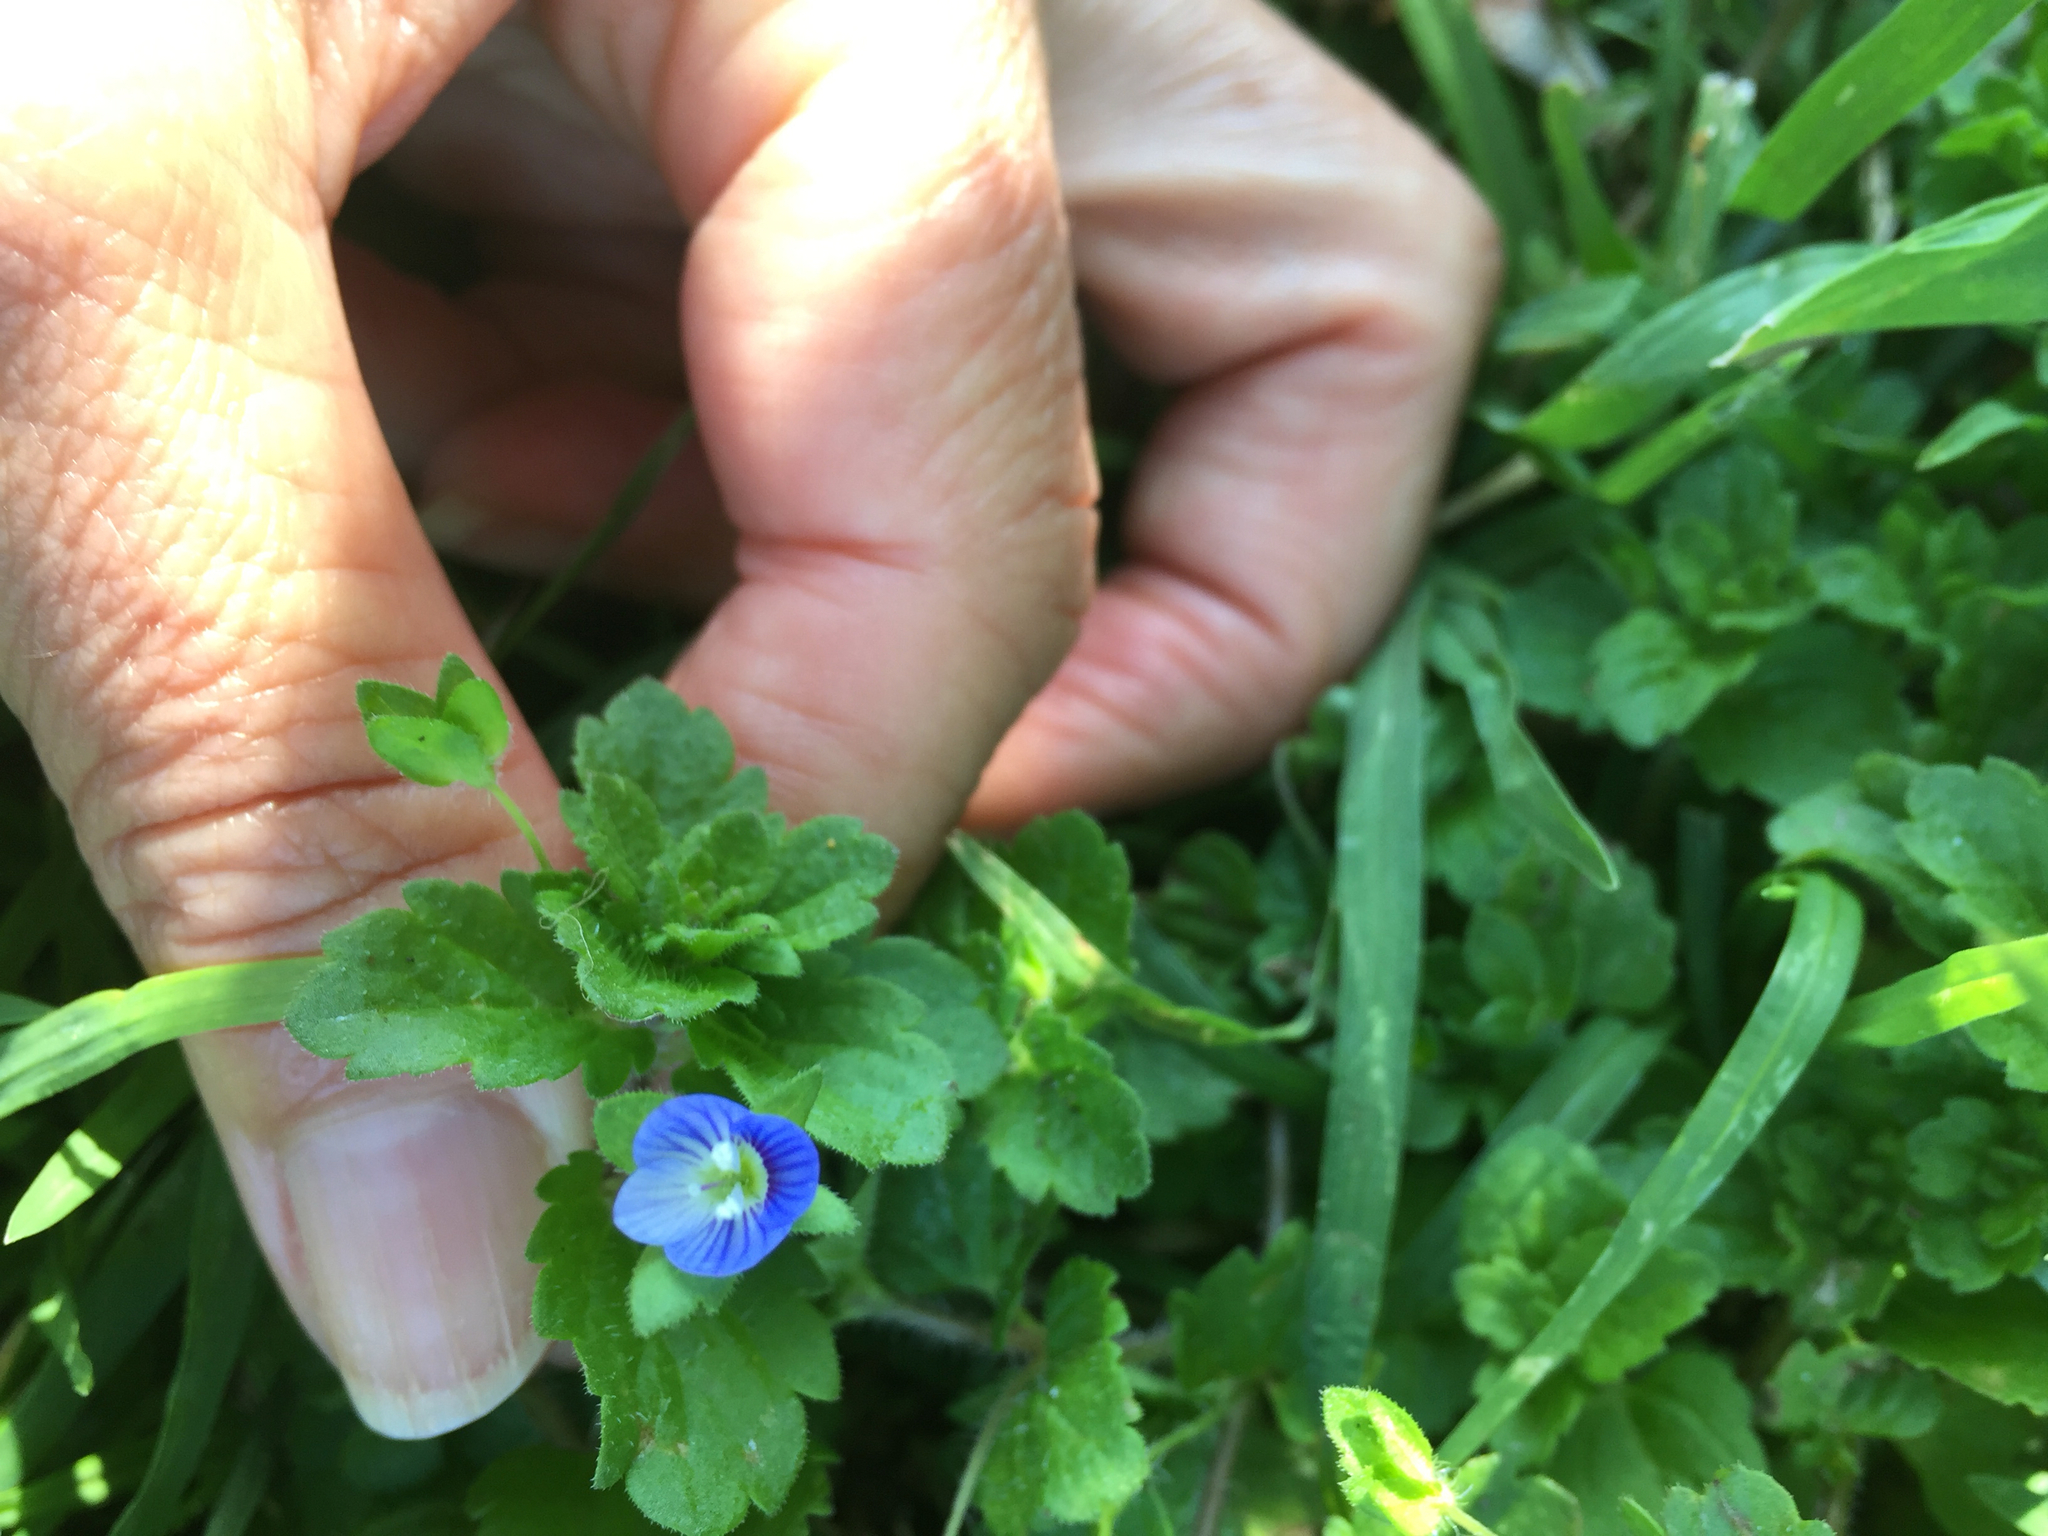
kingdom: Plantae
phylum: Tracheophyta
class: Magnoliopsida
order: Lamiales
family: Plantaginaceae
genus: Veronica
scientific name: Veronica persica
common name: Common field-speedwell
